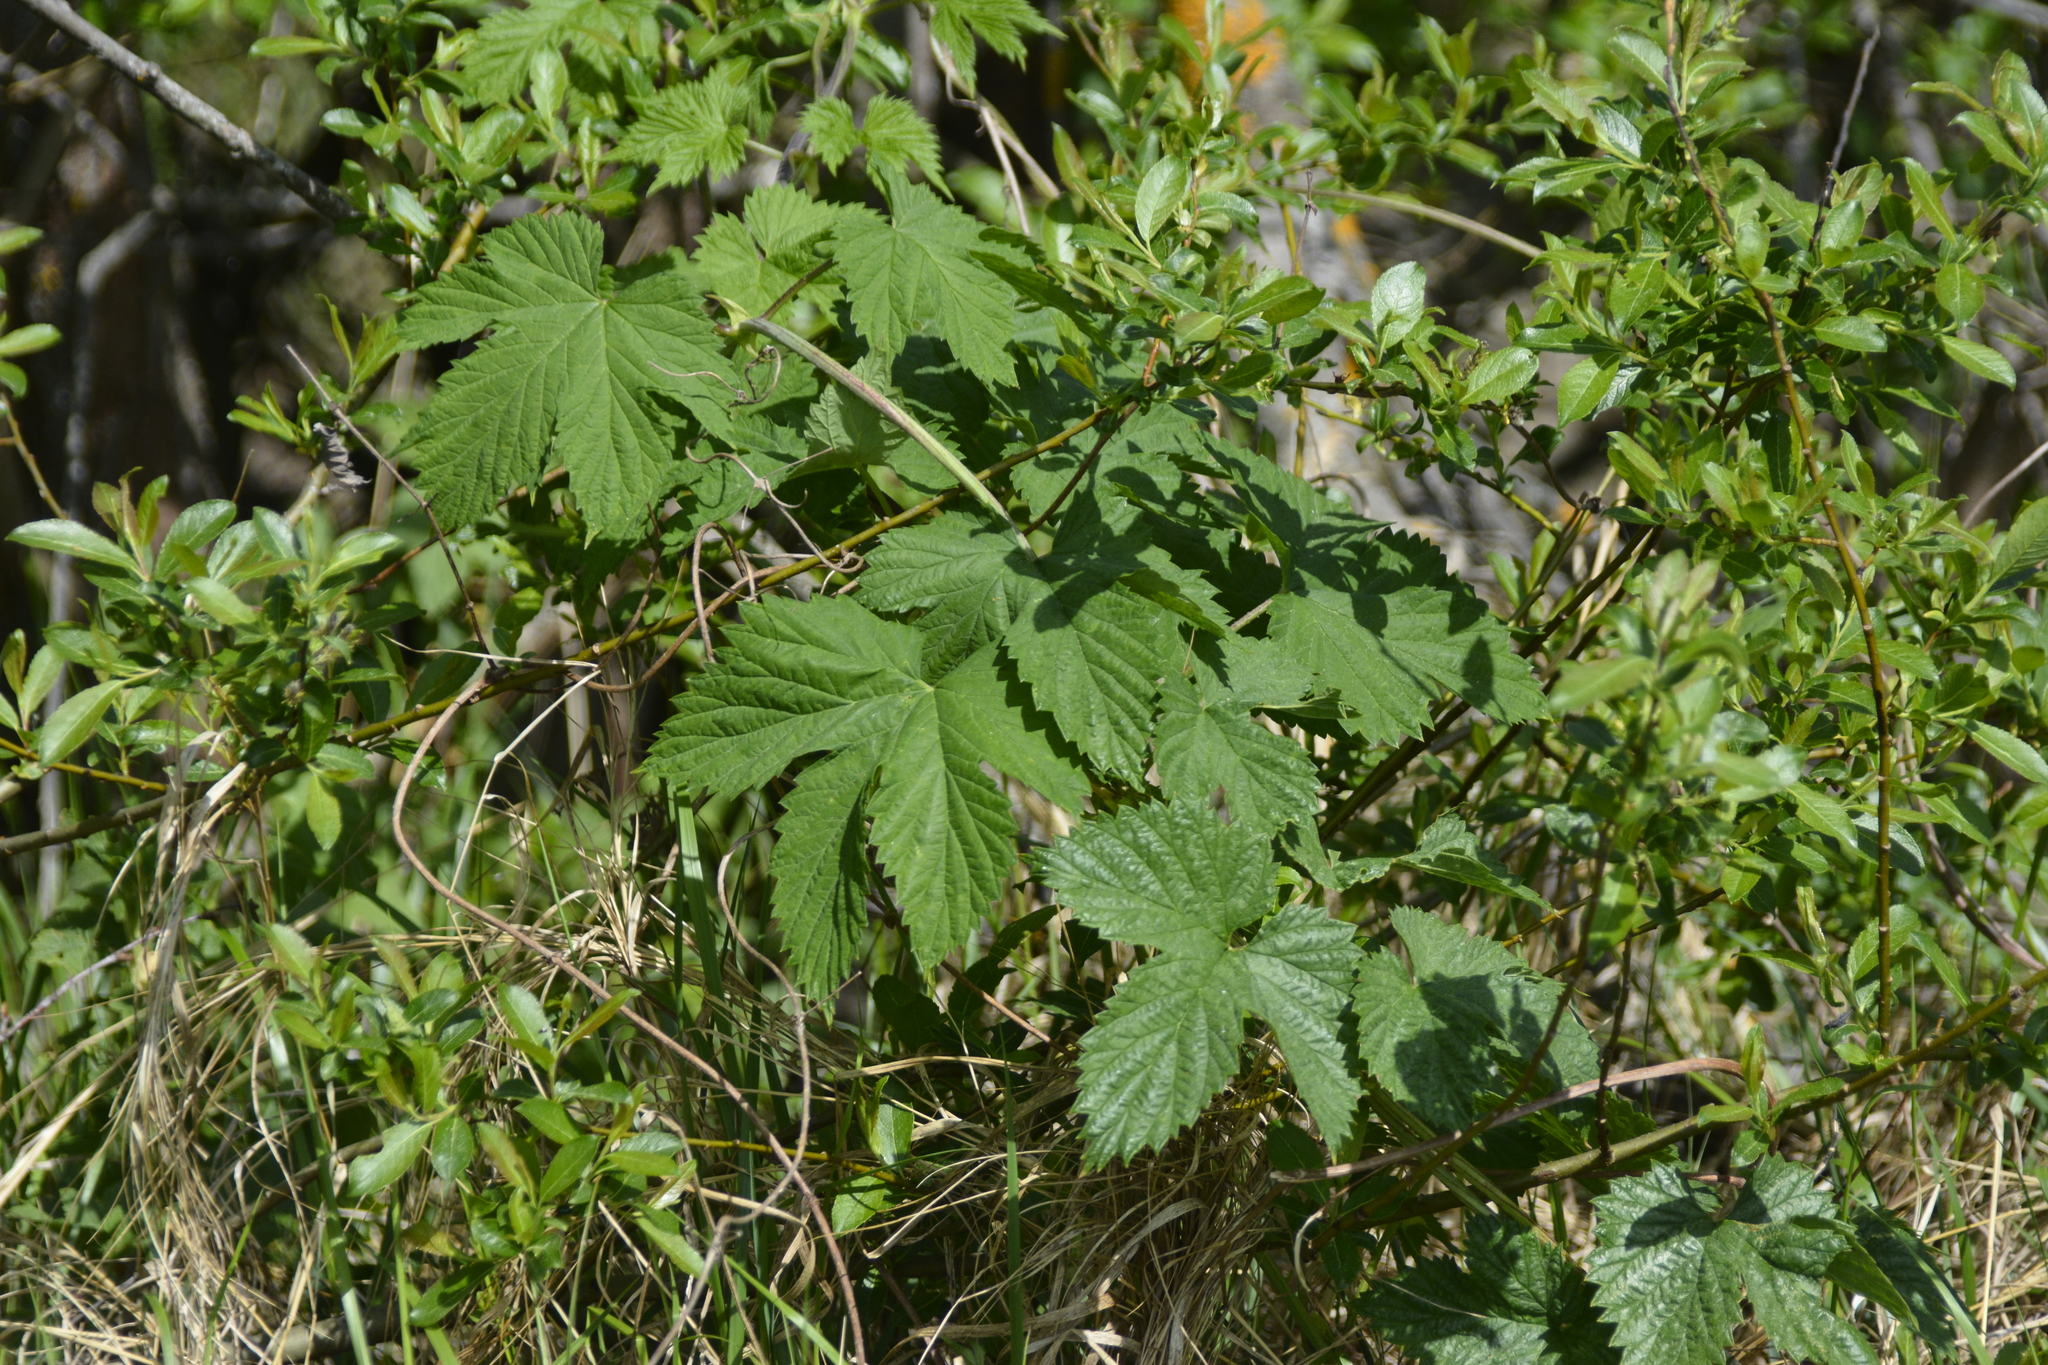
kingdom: Plantae
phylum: Tracheophyta
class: Magnoliopsida
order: Rosales
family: Cannabaceae
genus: Humulus
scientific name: Humulus lupulus
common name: Hop
